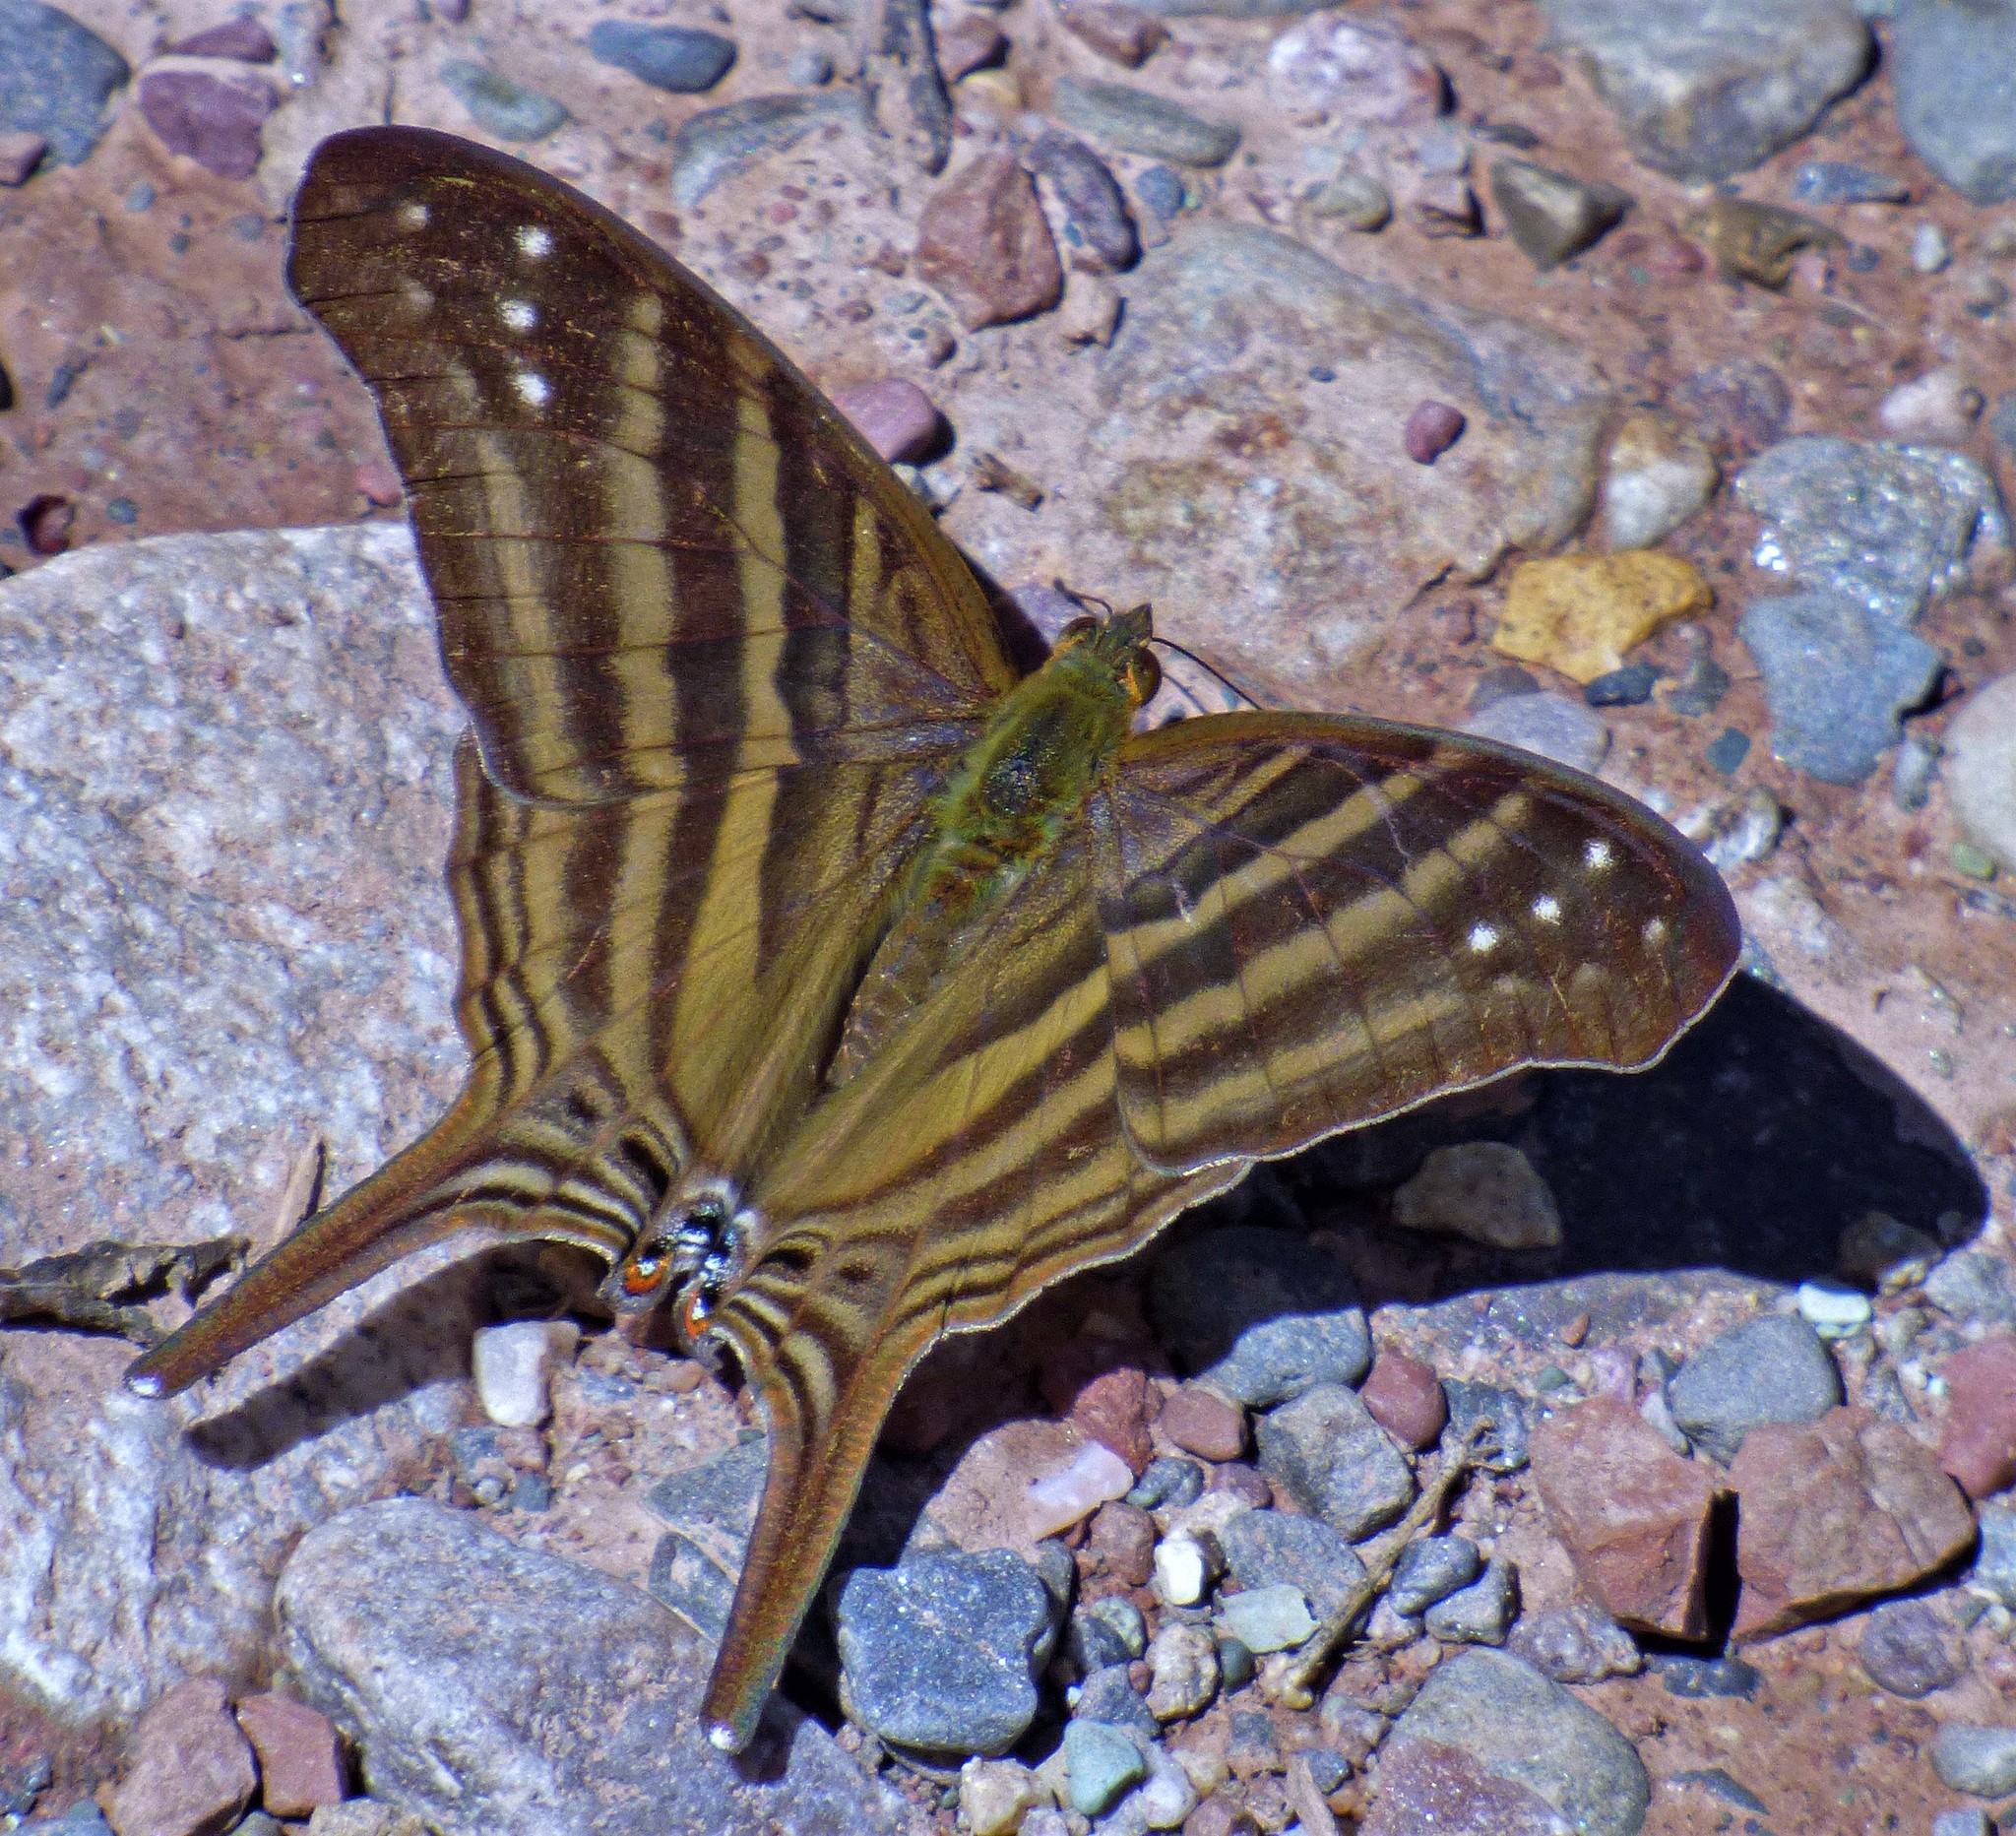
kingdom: Animalia
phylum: Arthropoda
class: Insecta
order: Lepidoptera
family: Nymphalidae
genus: Marpesia
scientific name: Marpesia chiron
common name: Many-banded daggerwing
